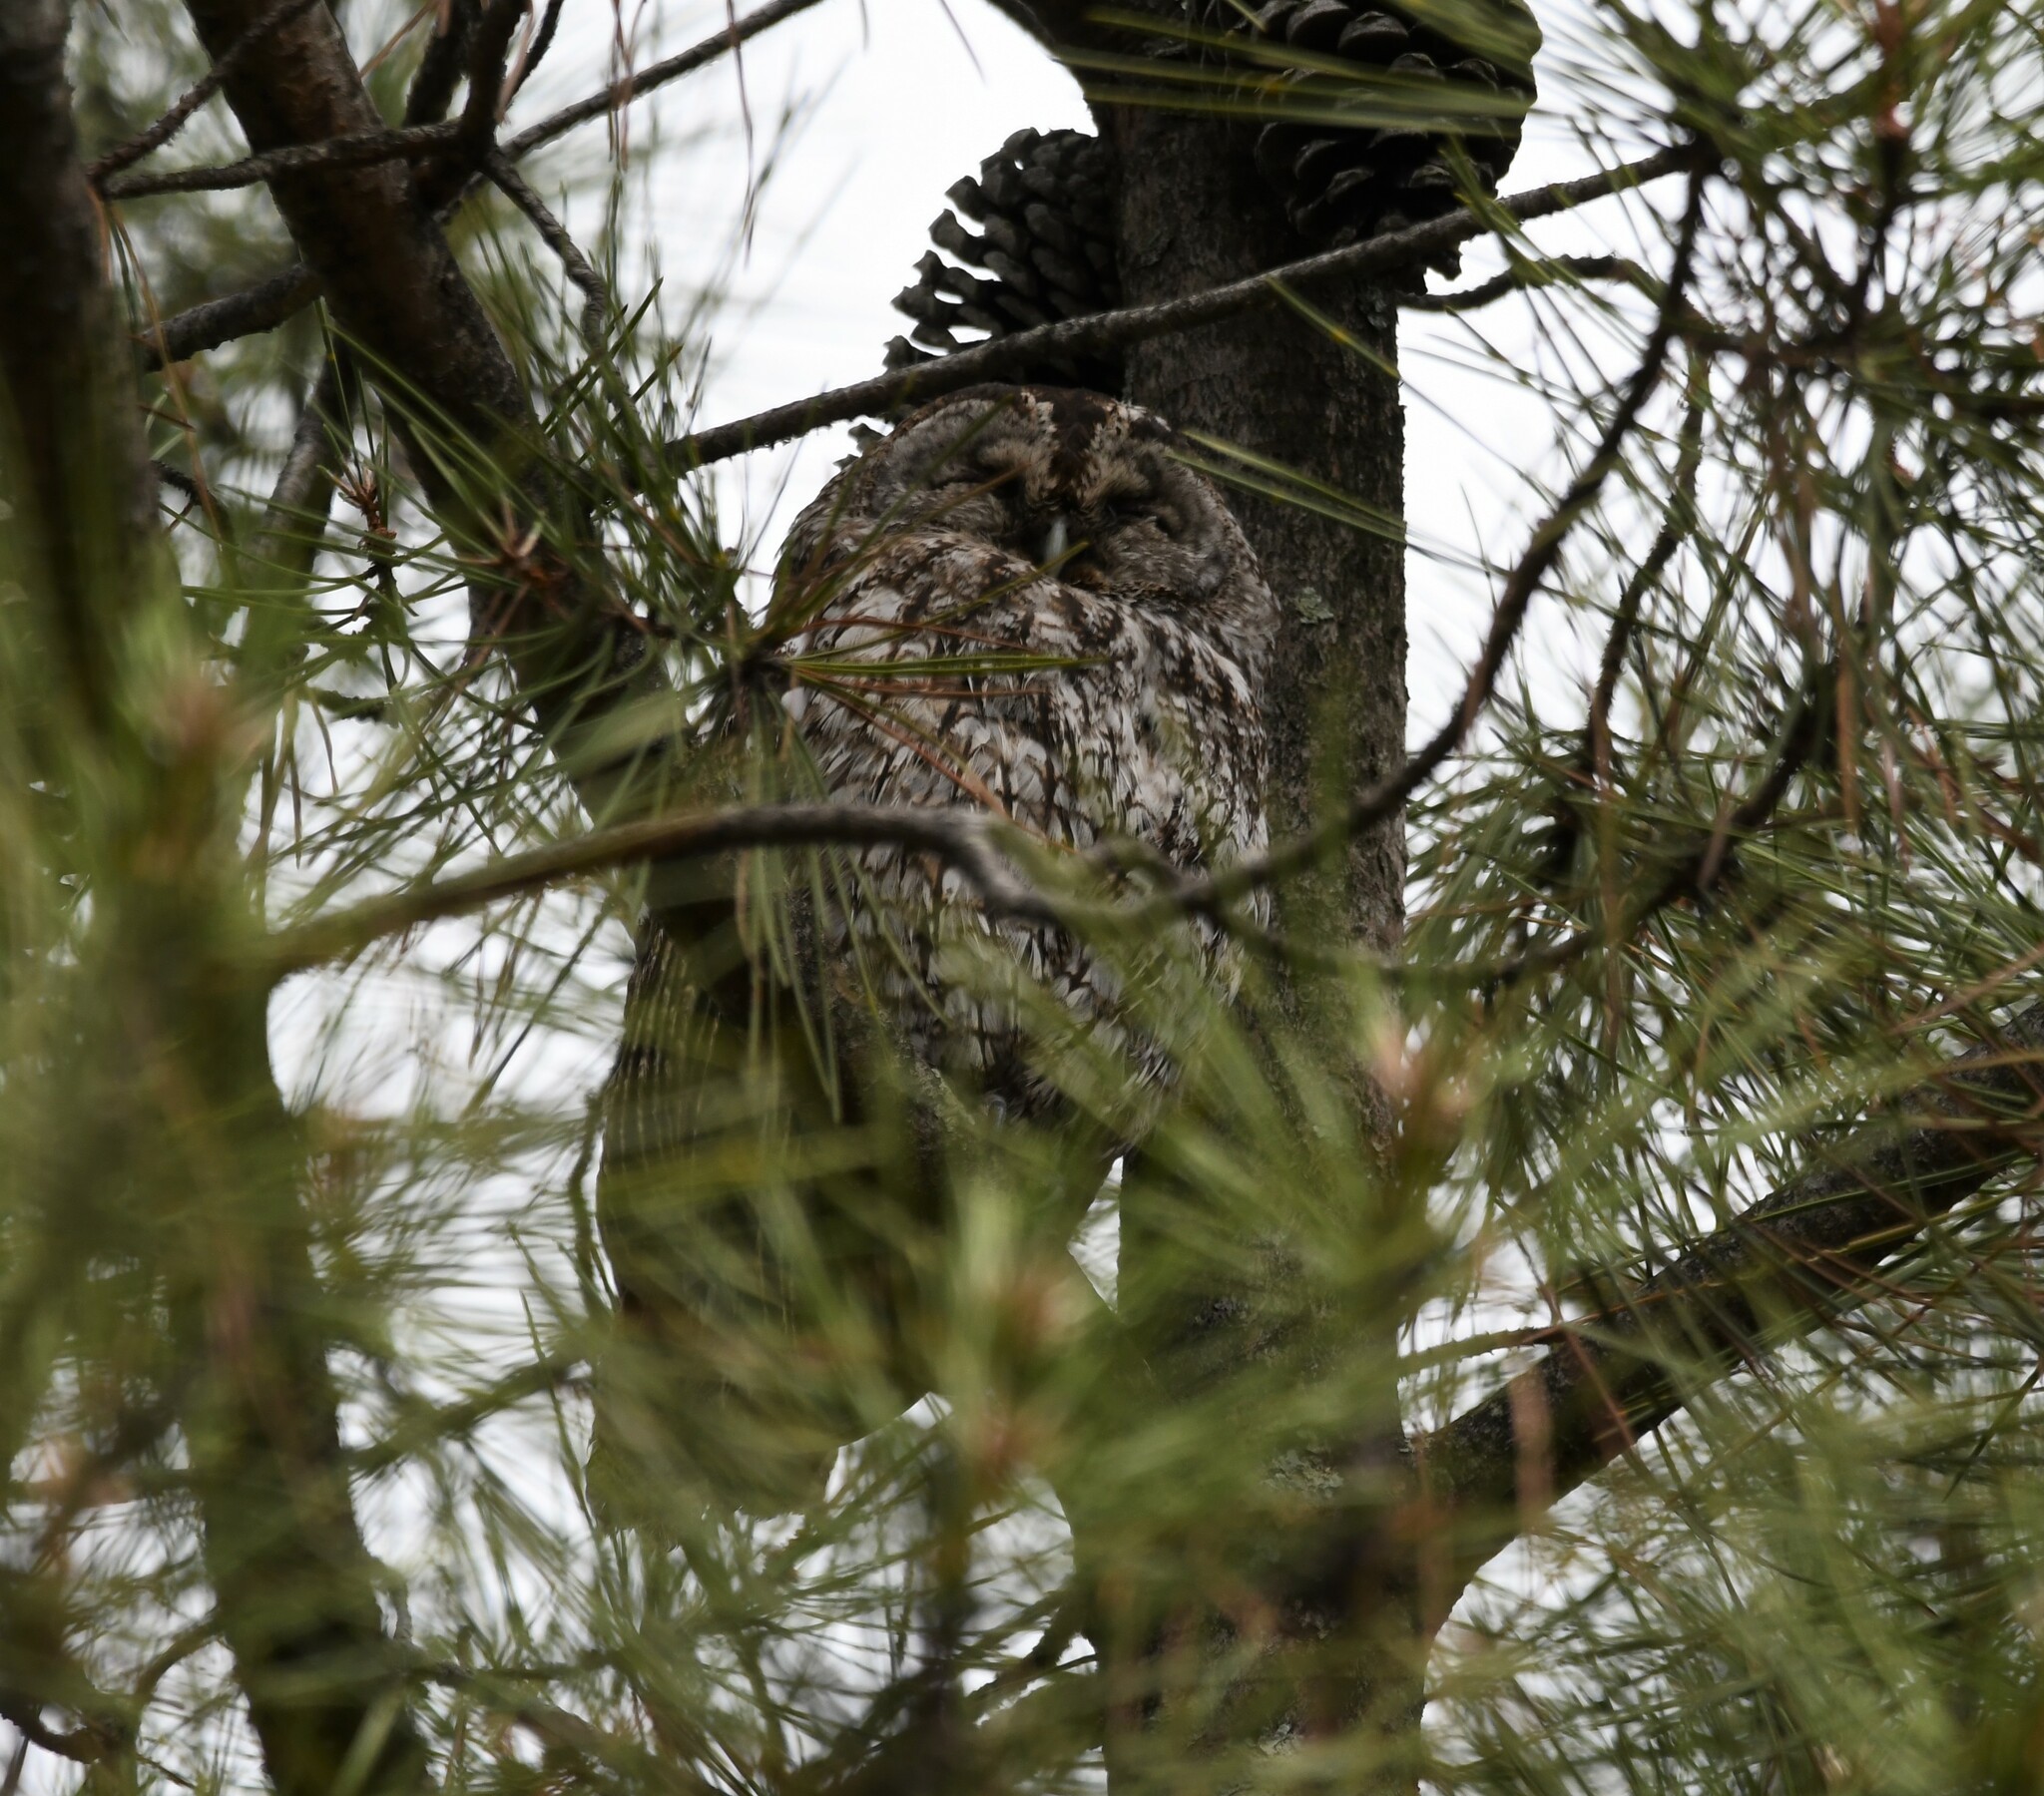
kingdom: Animalia
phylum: Chordata
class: Aves
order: Strigiformes
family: Strigidae
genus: Strix
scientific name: Strix aluco
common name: Tawny owl
